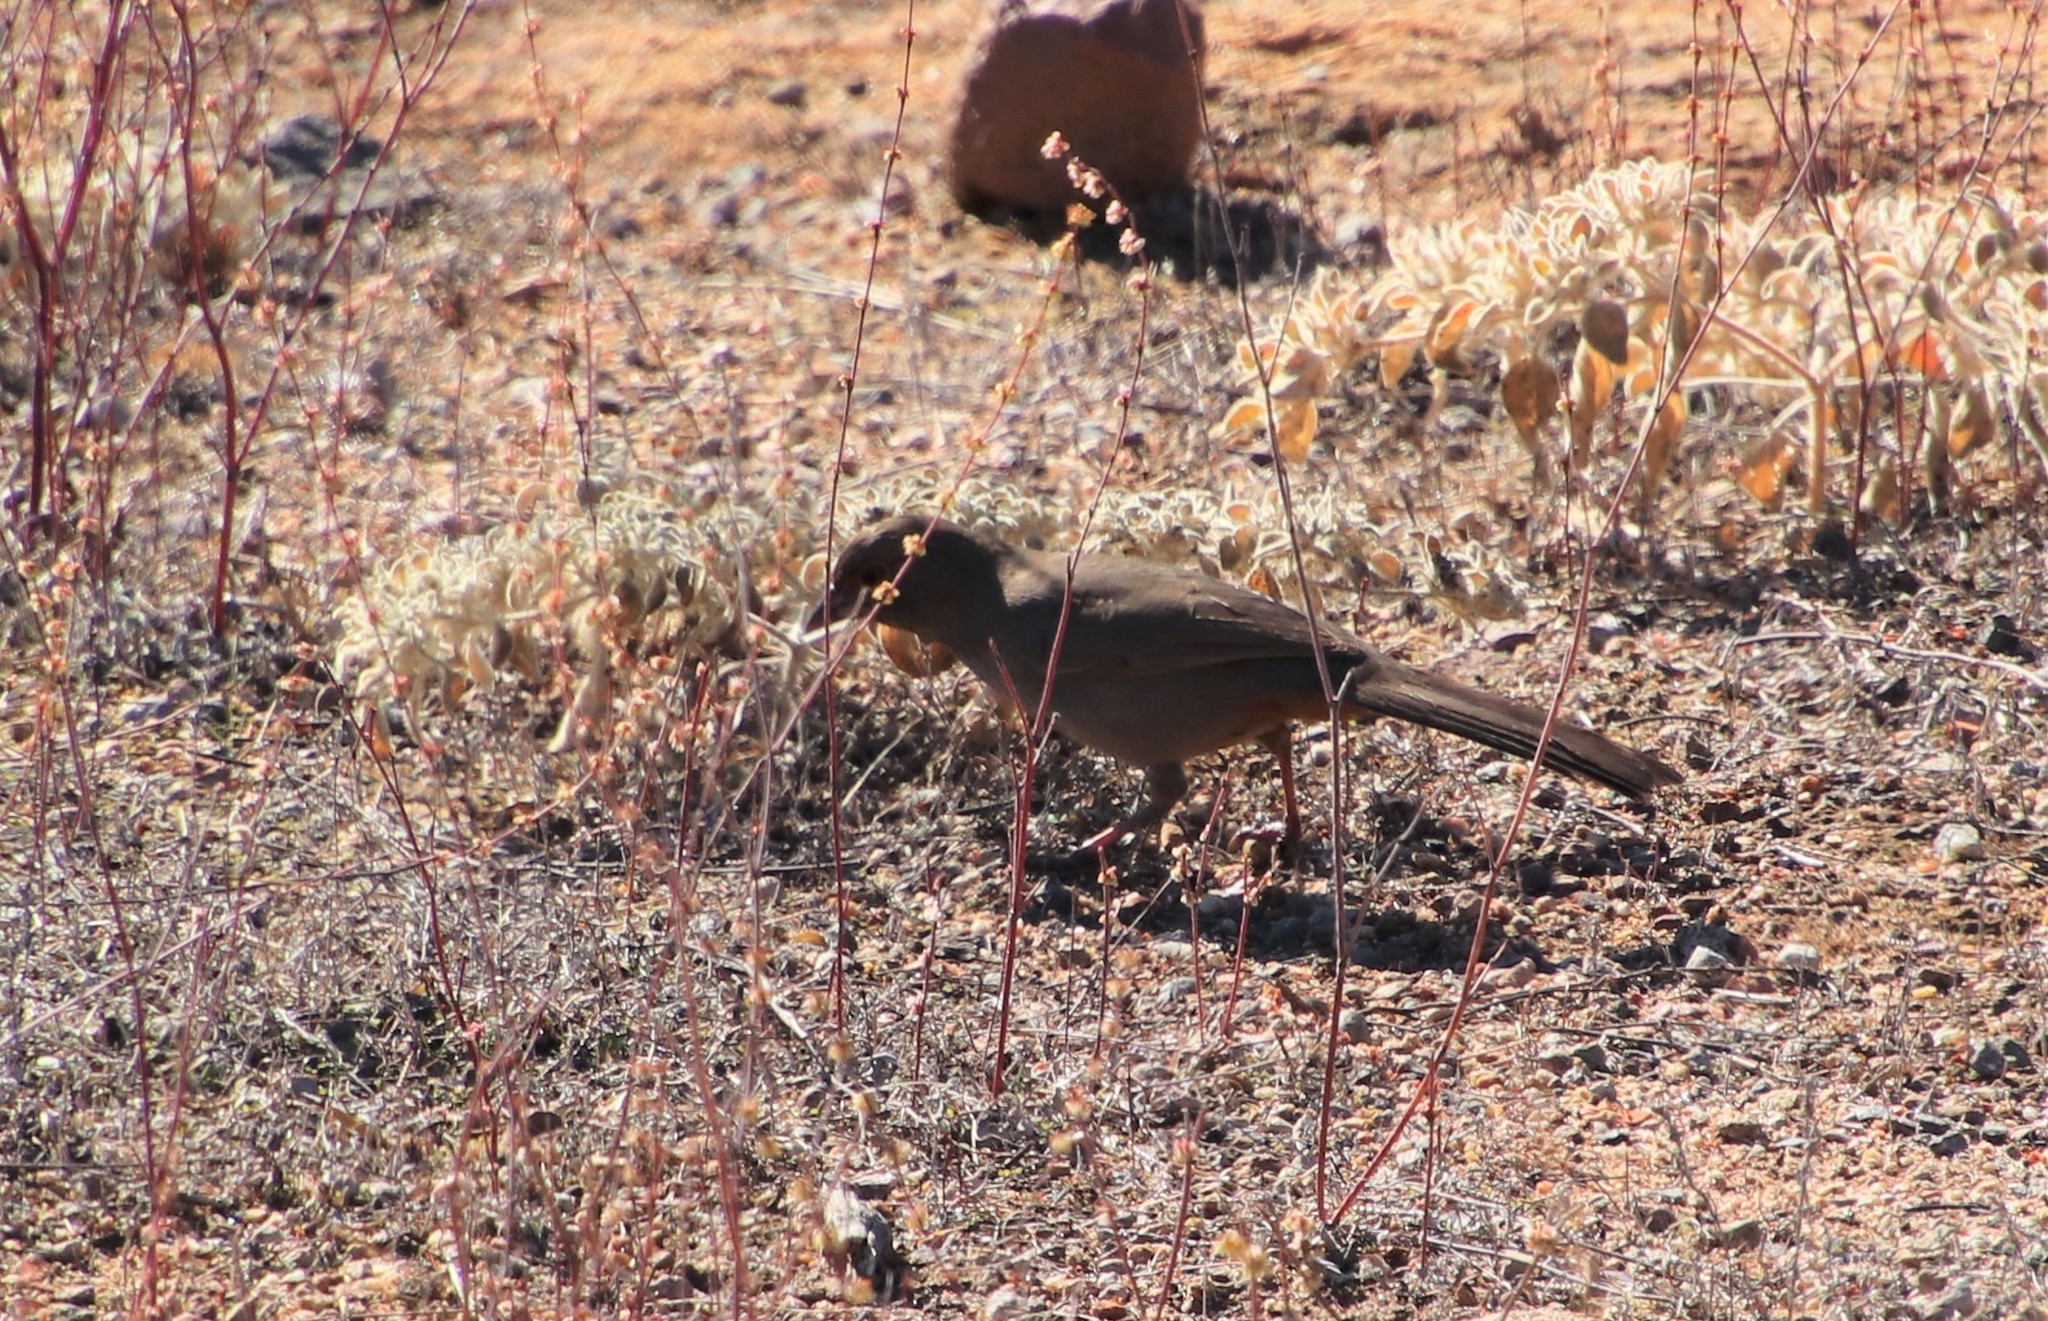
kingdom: Animalia
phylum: Chordata
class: Aves
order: Passeriformes
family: Passerellidae
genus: Melozone
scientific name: Melozone crissalis
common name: California towhee
